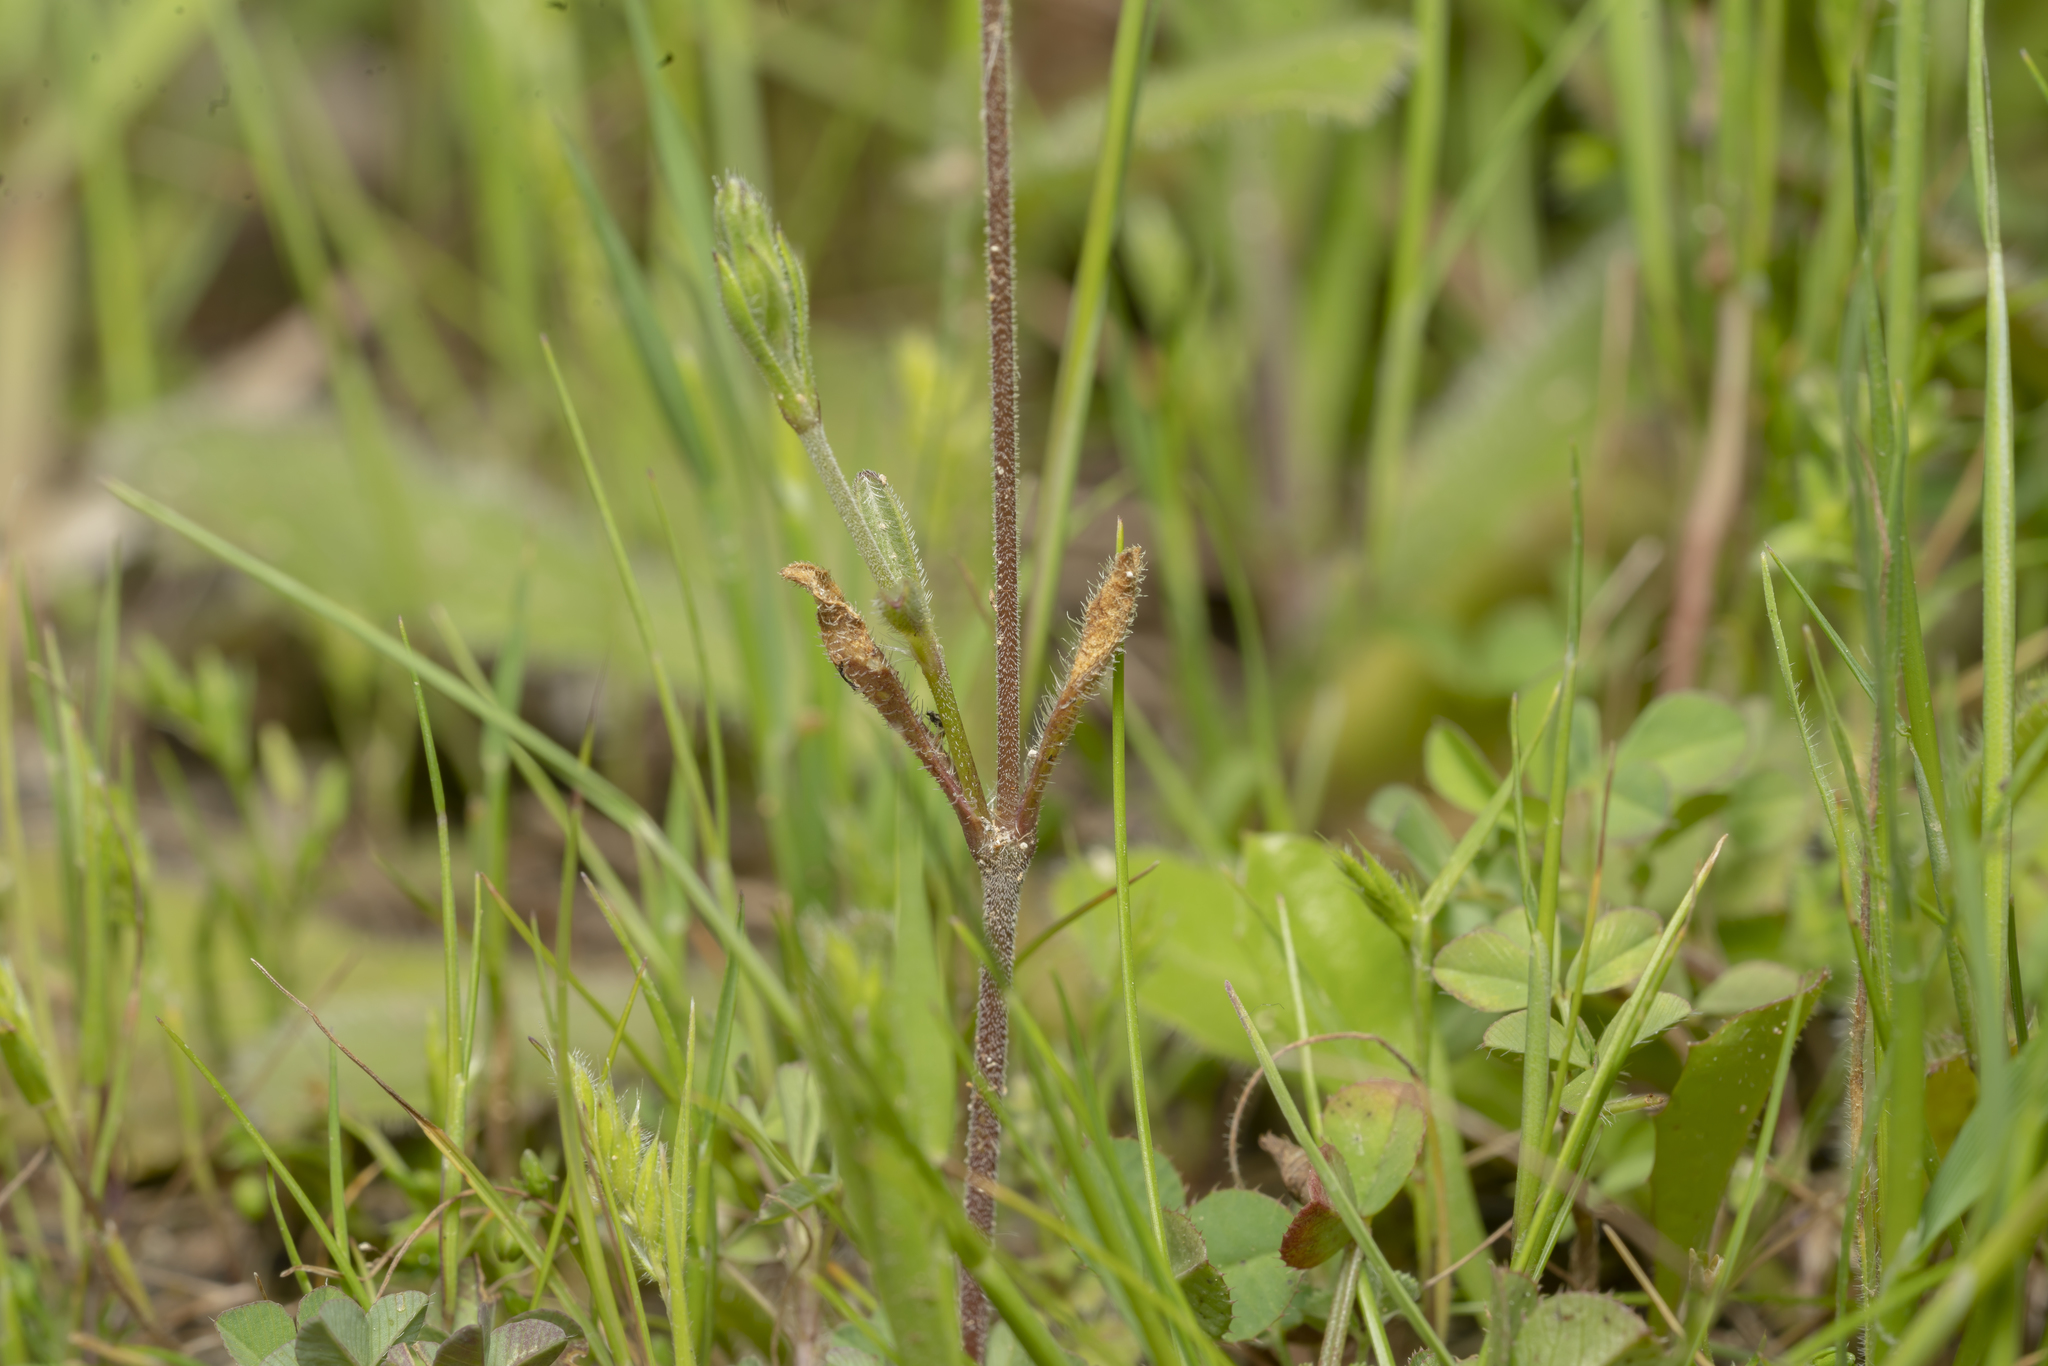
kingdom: Plantae
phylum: Tracheophyta
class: Magnoliopsida
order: Caryophyllales
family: Caryophyllaceae
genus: Silene
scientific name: Silene nocturna
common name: Mediterranean catchfly
